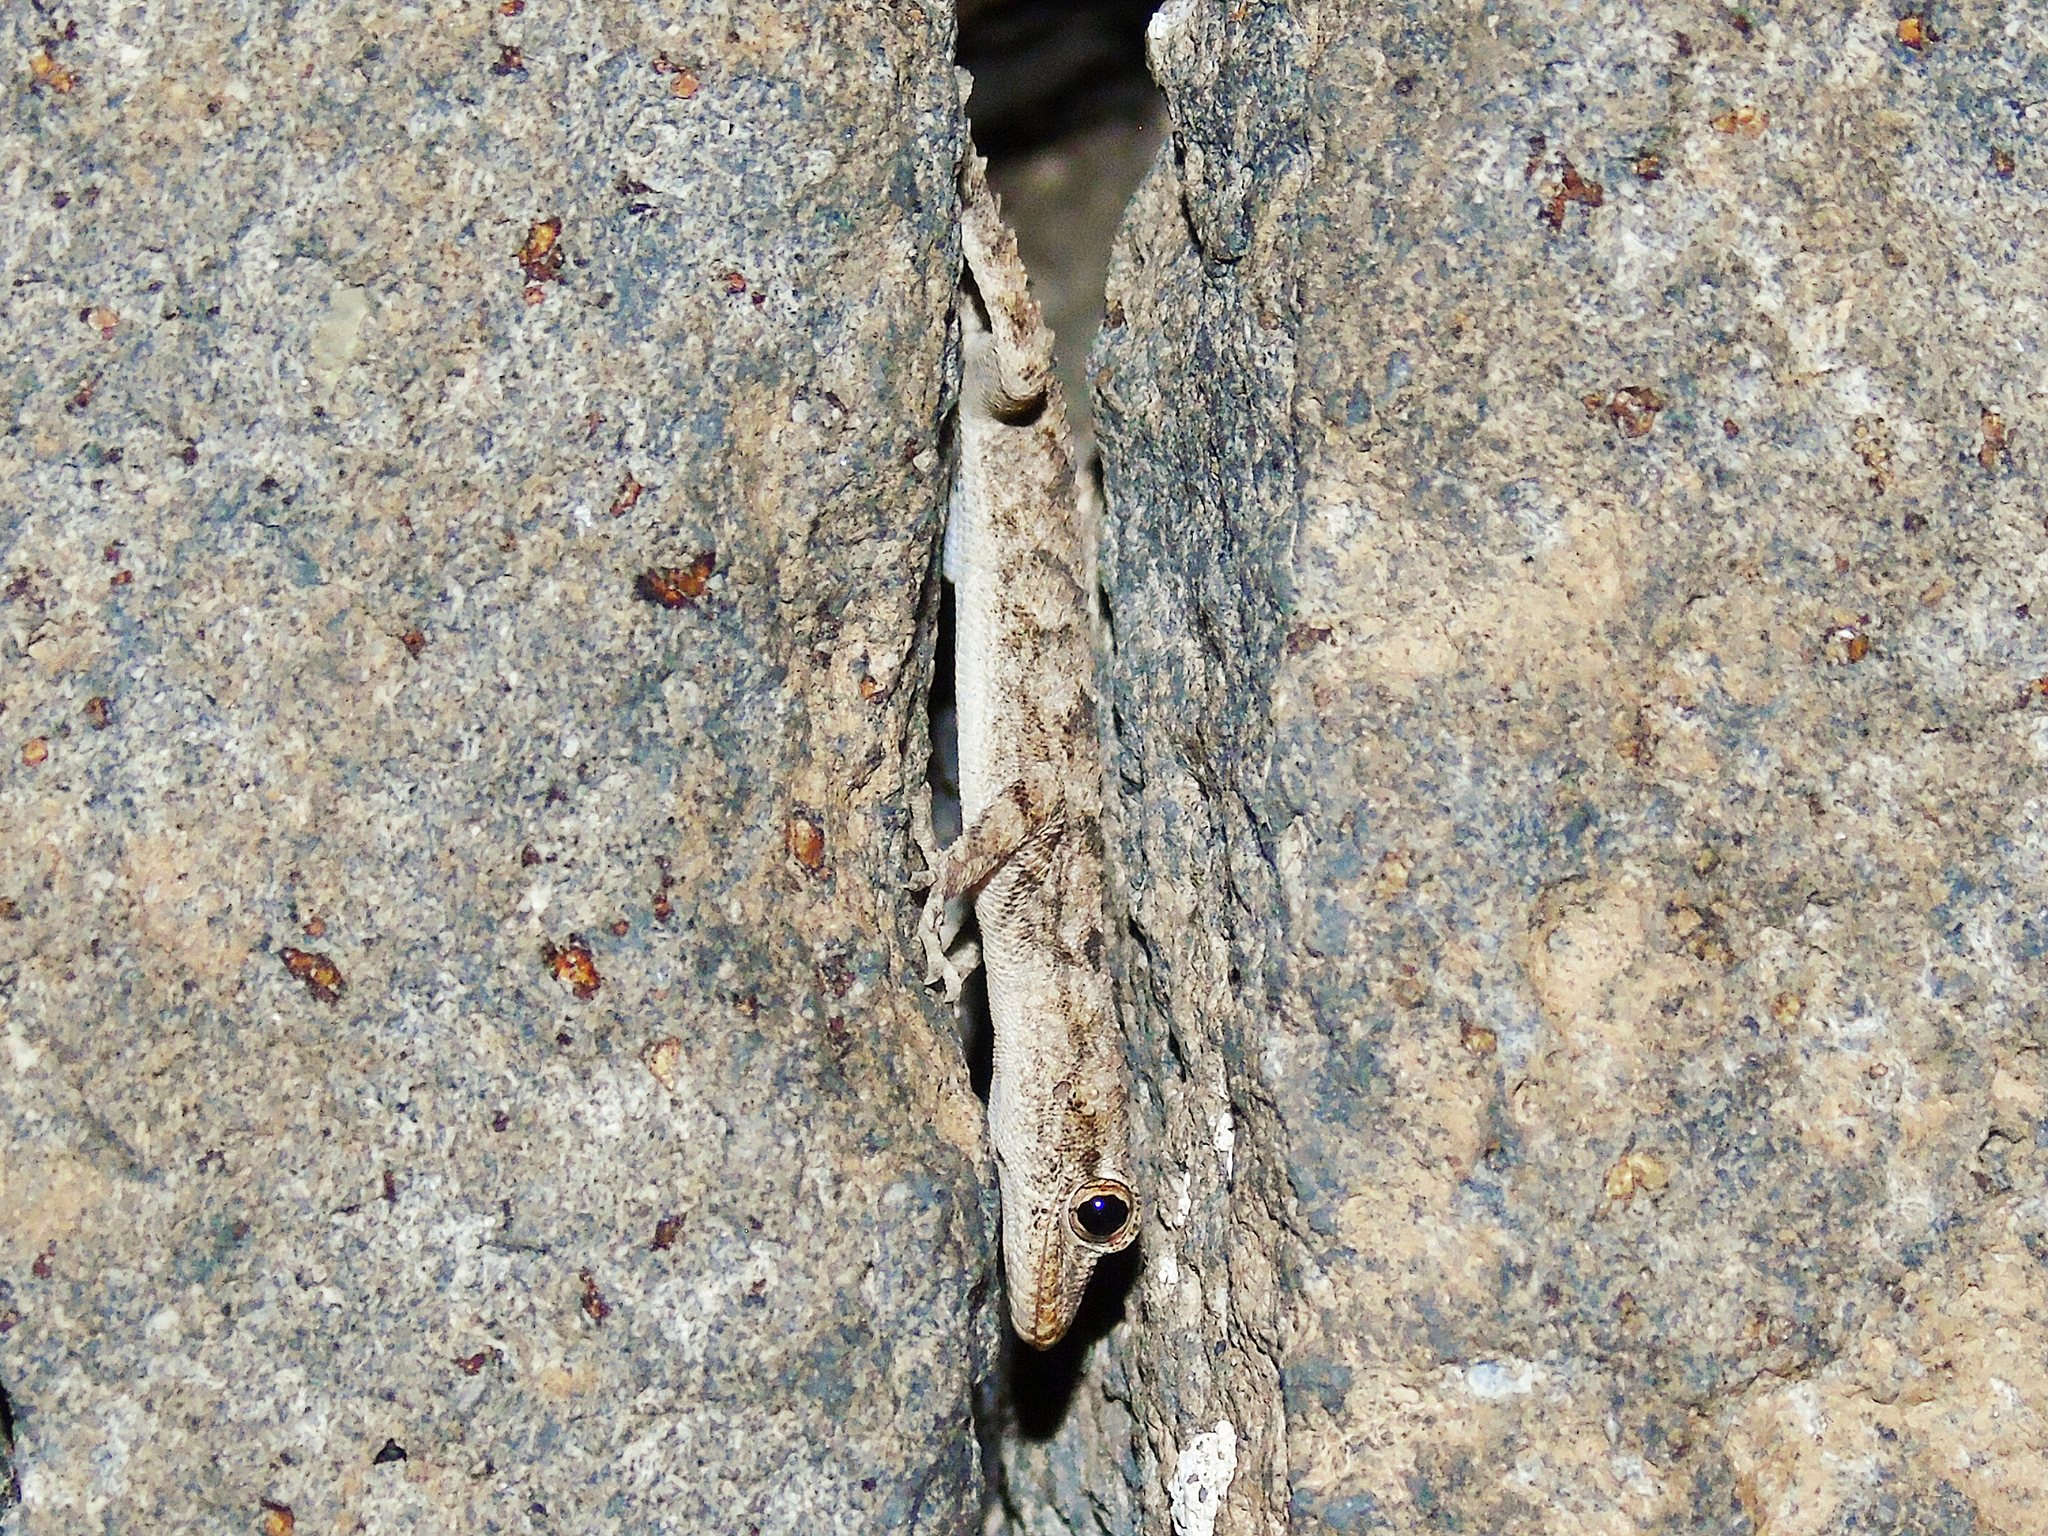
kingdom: Animalia
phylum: Chordata
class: Squamata
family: Gekkonidae
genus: Mediodactylus
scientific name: Mediodactylus heterocercus
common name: Asia minor thin-toed gecko
